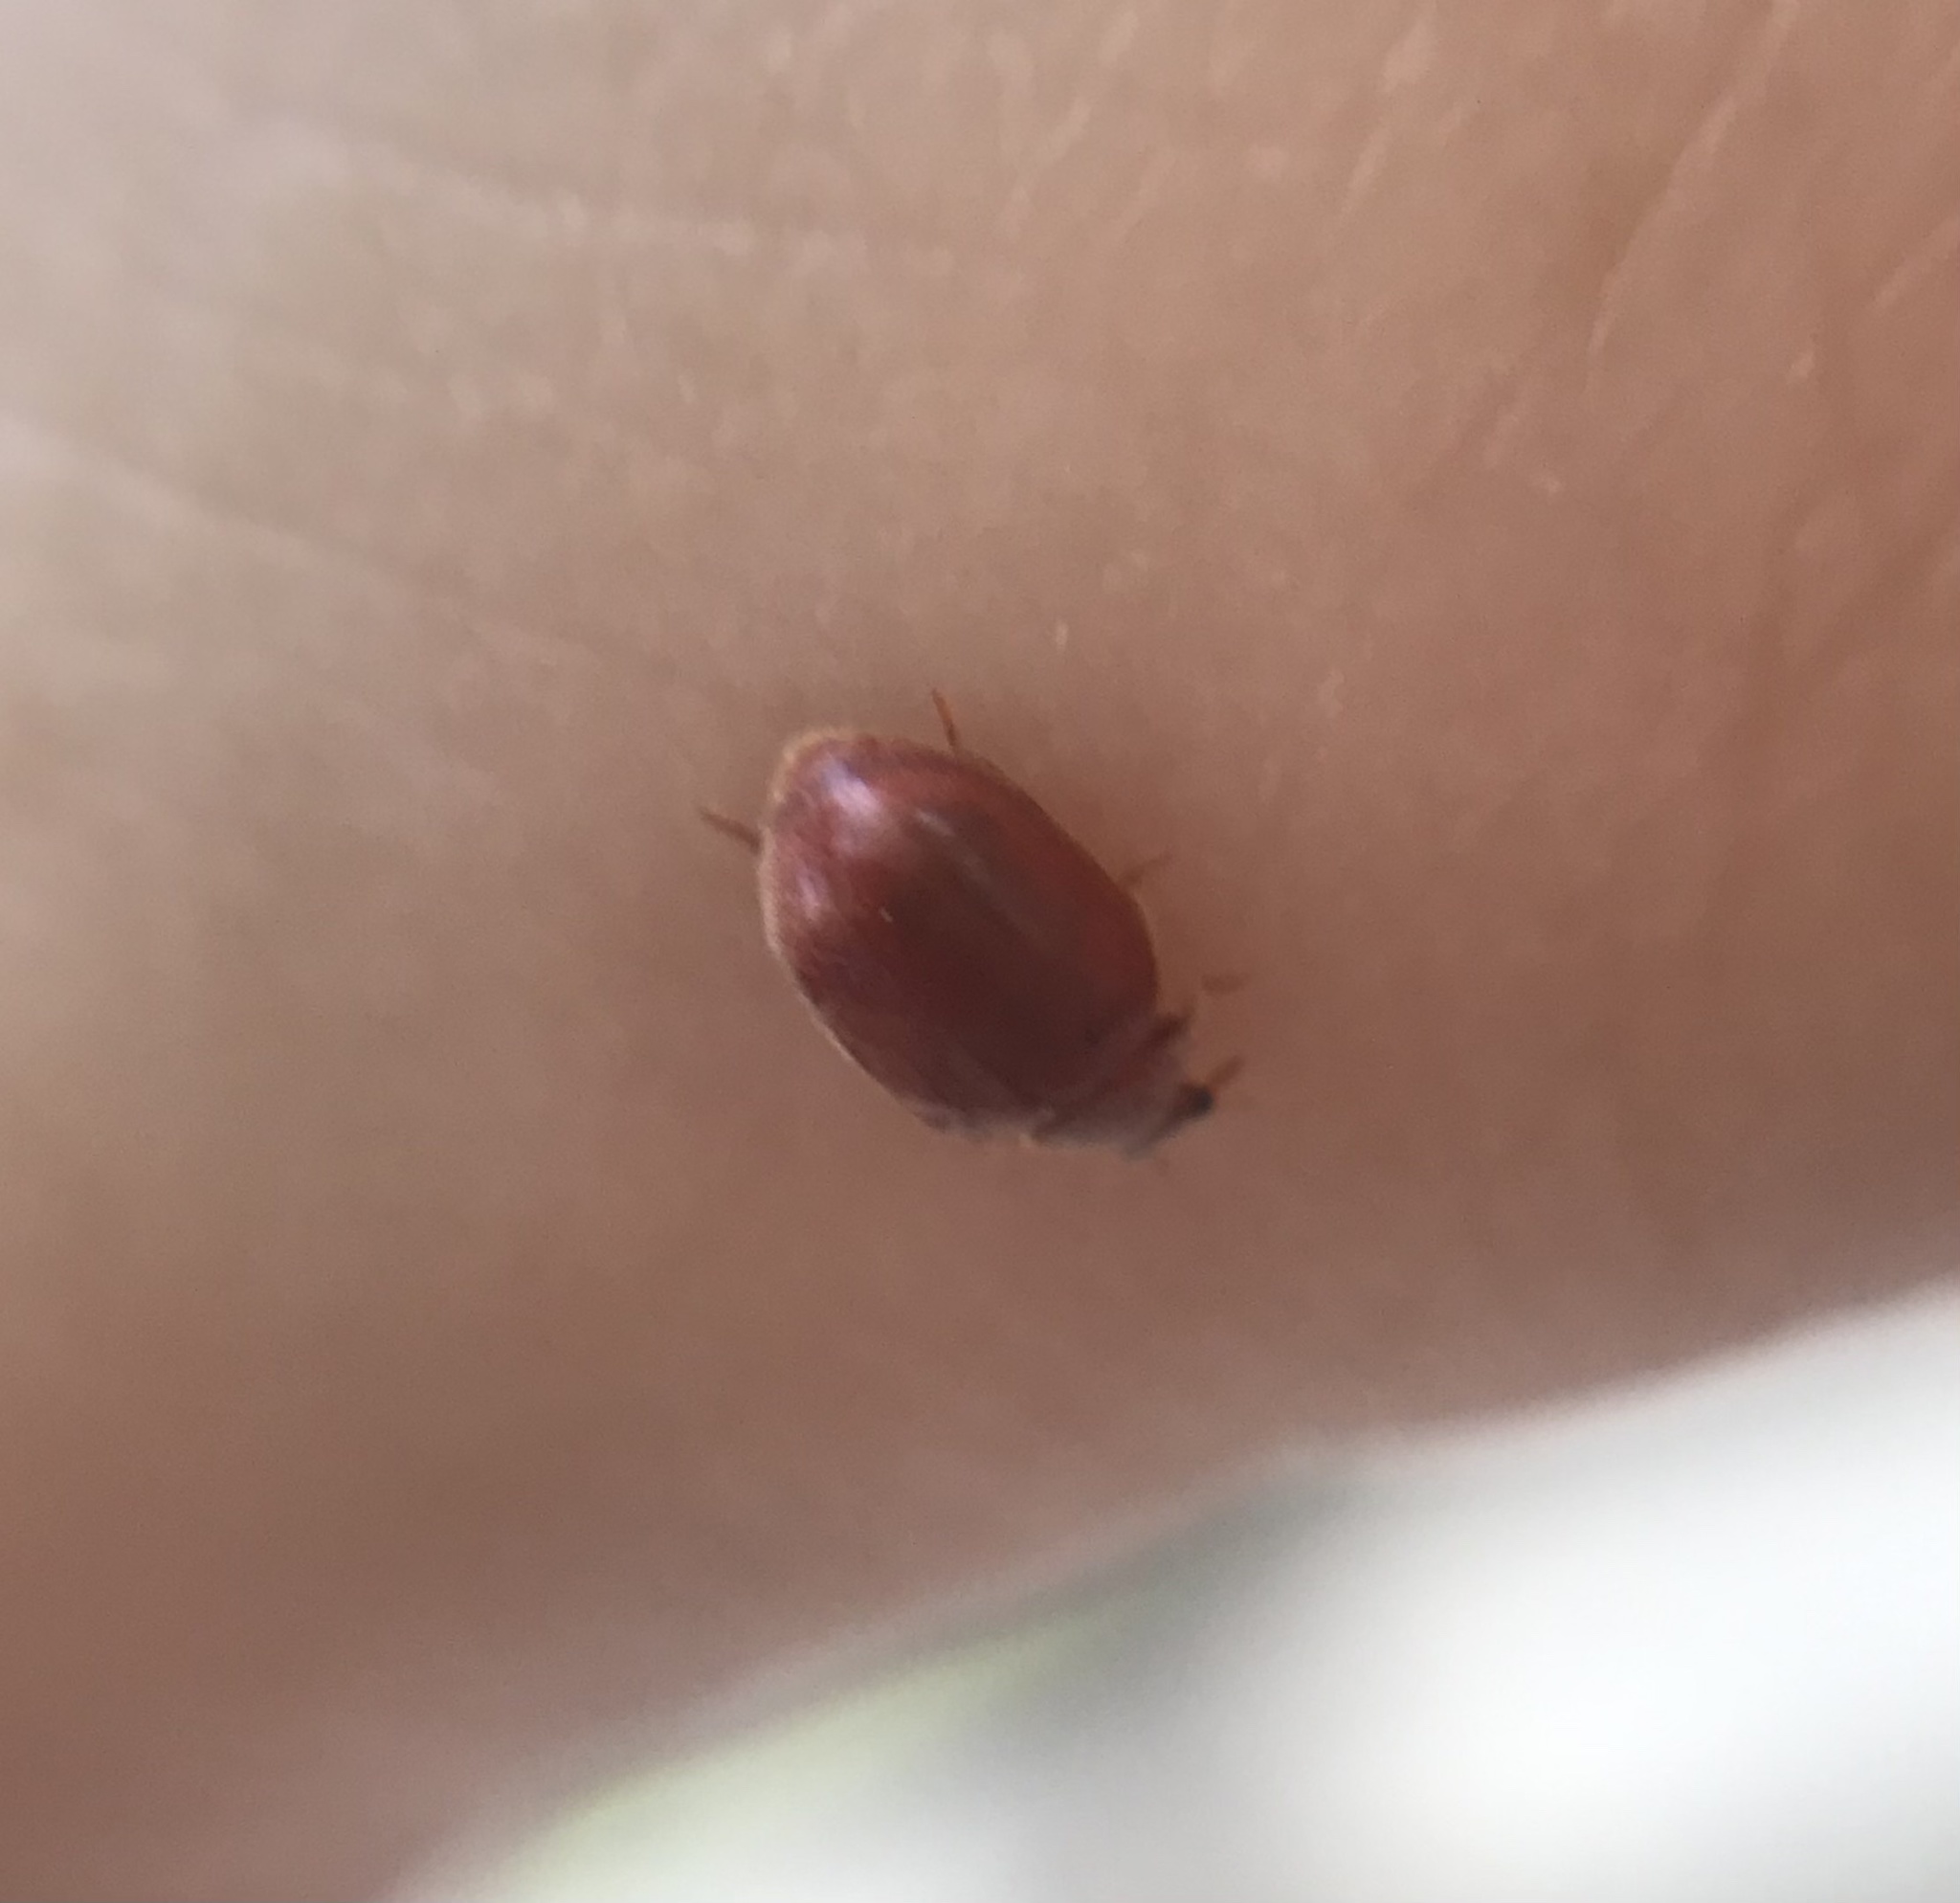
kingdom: Animalia
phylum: Arthropoda
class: Insecta
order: Coleoptera
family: Coccinellidae
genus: Novius
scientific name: Novius cruentatus
